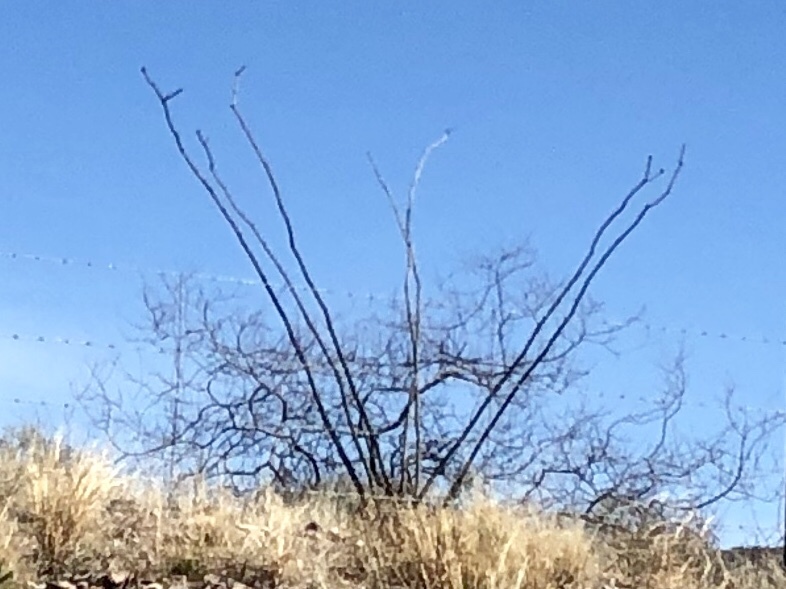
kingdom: Plantae
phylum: Tracheophyta
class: Magnoliopsida
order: Ericales
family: Fouquieriaceae
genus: Fouquieria
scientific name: Fouquieria splendens
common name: Vine-cactus
